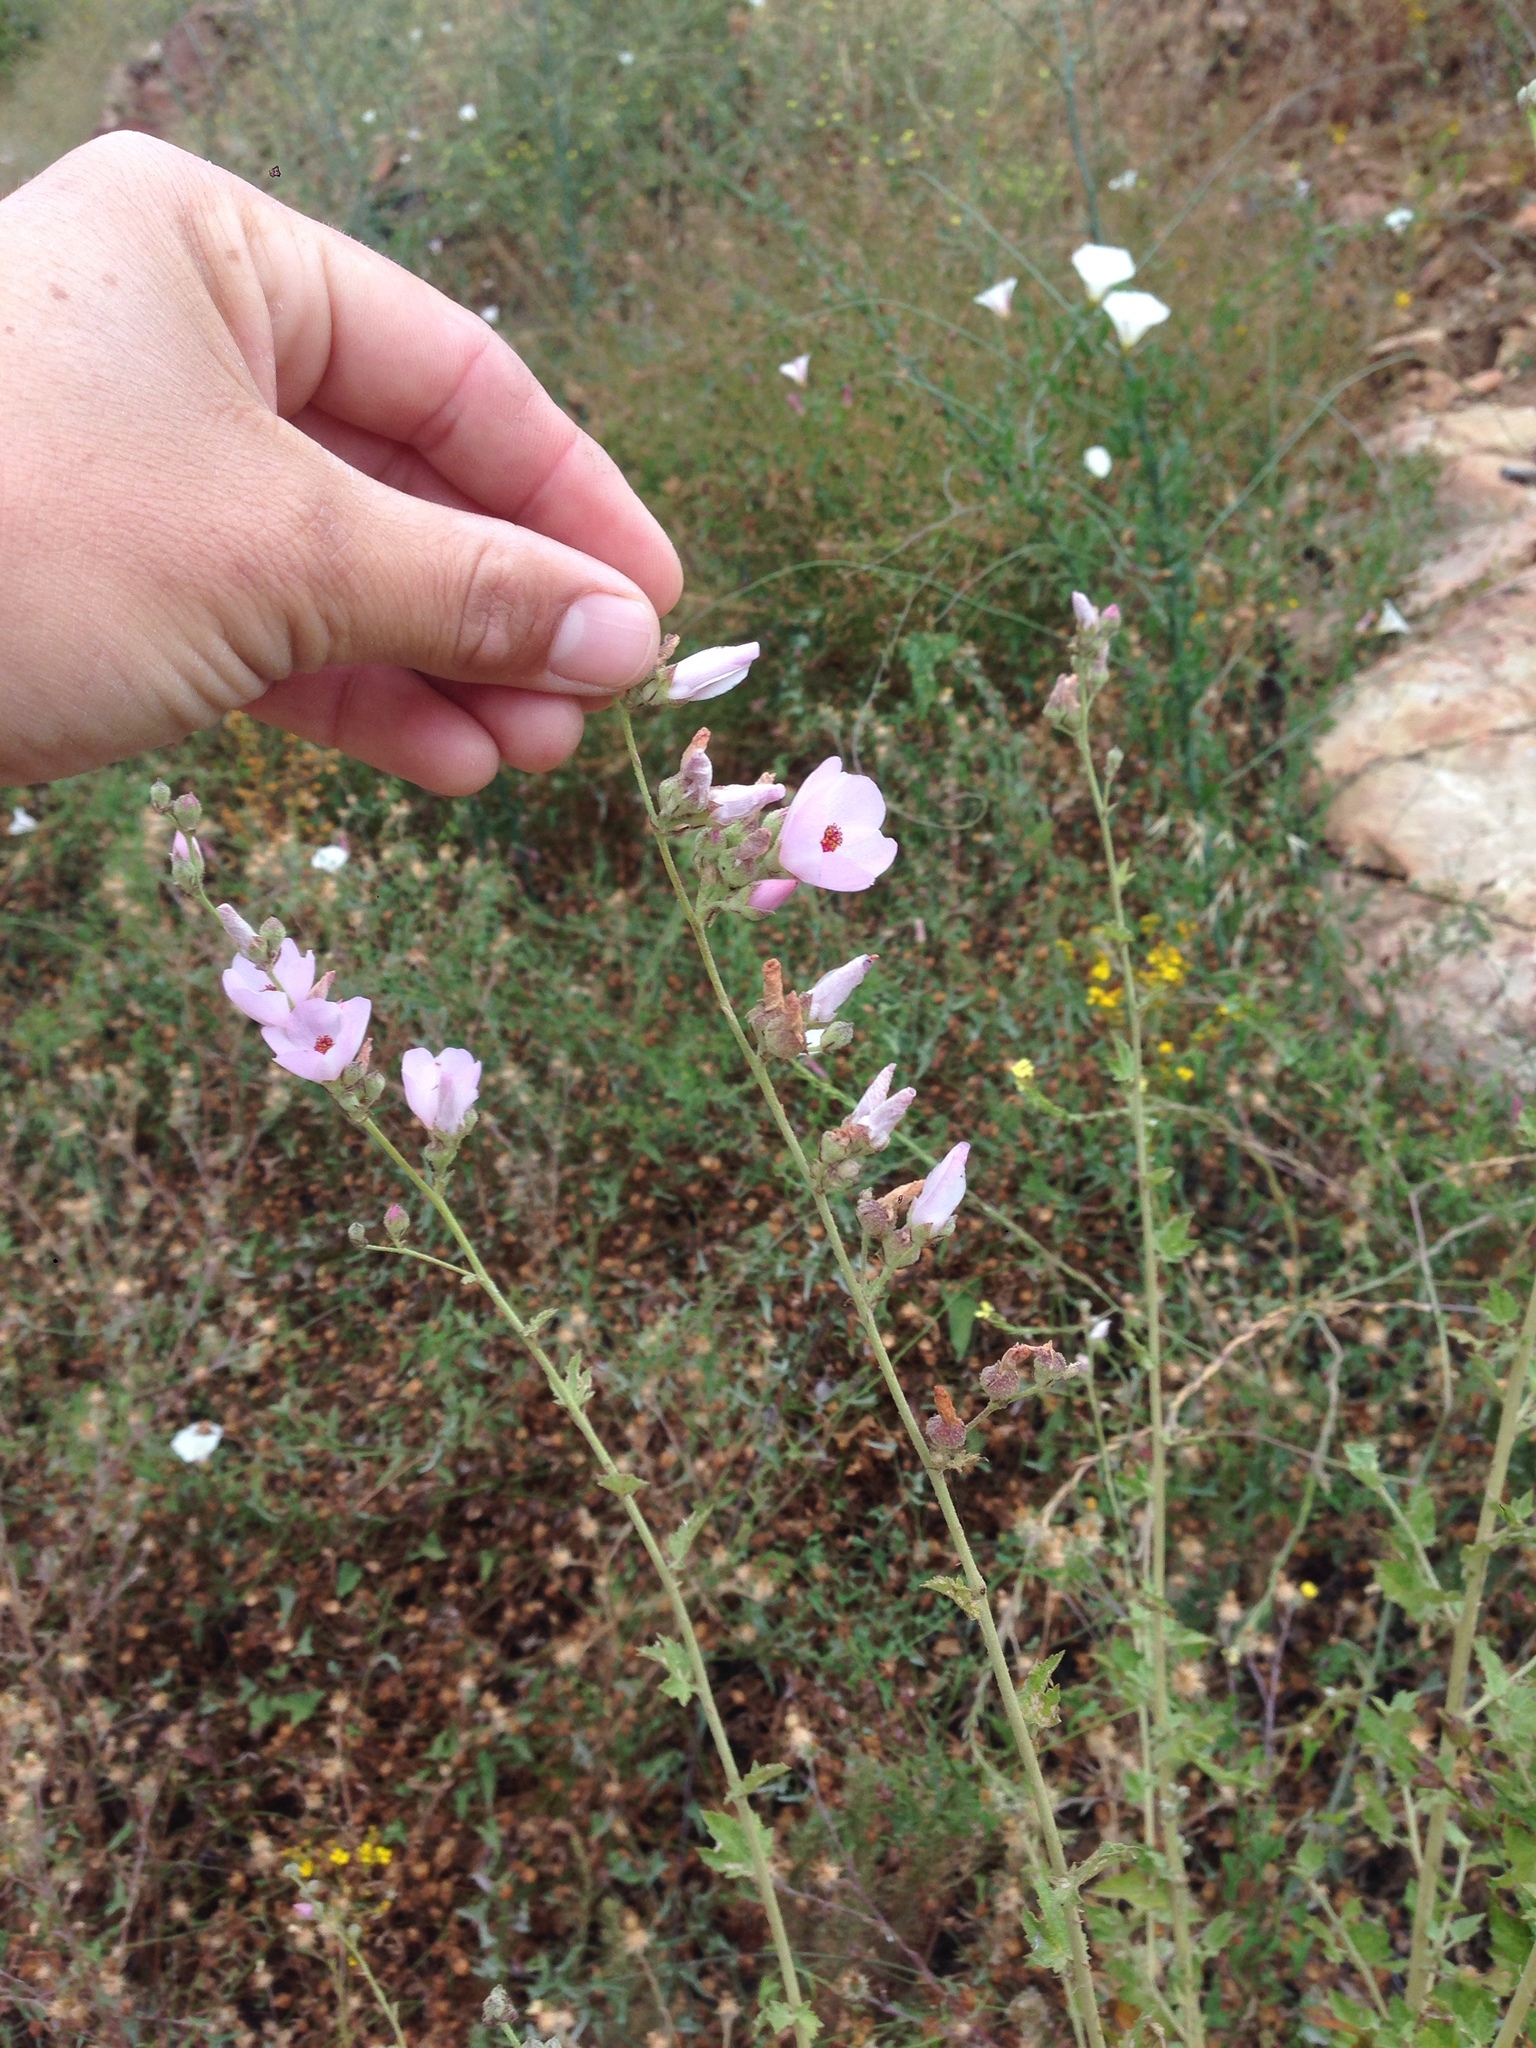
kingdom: Plantae
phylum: Tracheophyta
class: Magnoliopsida
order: Malvales
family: Malvaceae
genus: Malacothamnus
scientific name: Malacothamnus fasciculatus
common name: Sant cruz island bush-mallow
